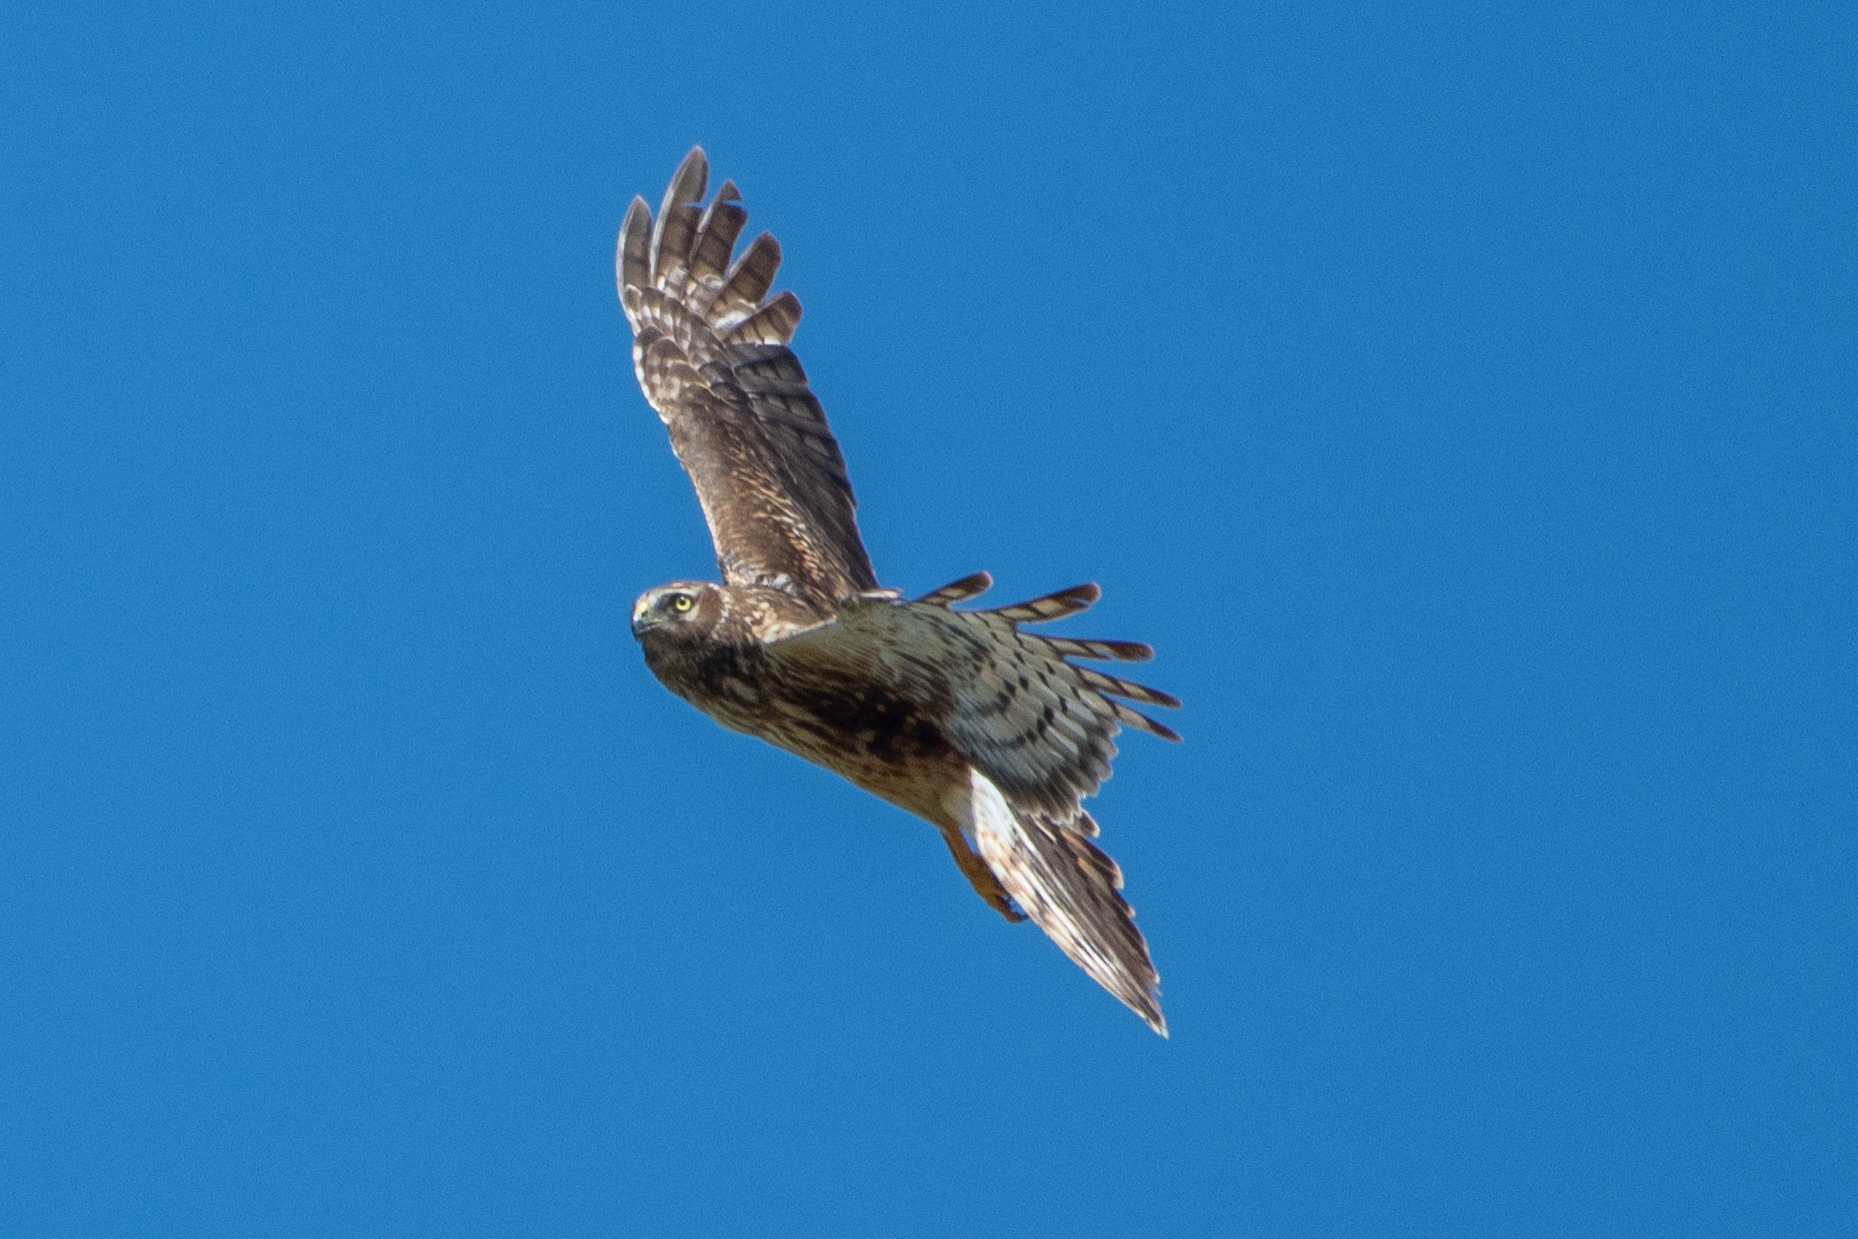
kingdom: Animalia
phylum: Chordata
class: Aves
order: Accipitriformes
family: Accipitridae
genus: Circus
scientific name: Circus cyaneus
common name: Hen harrier
